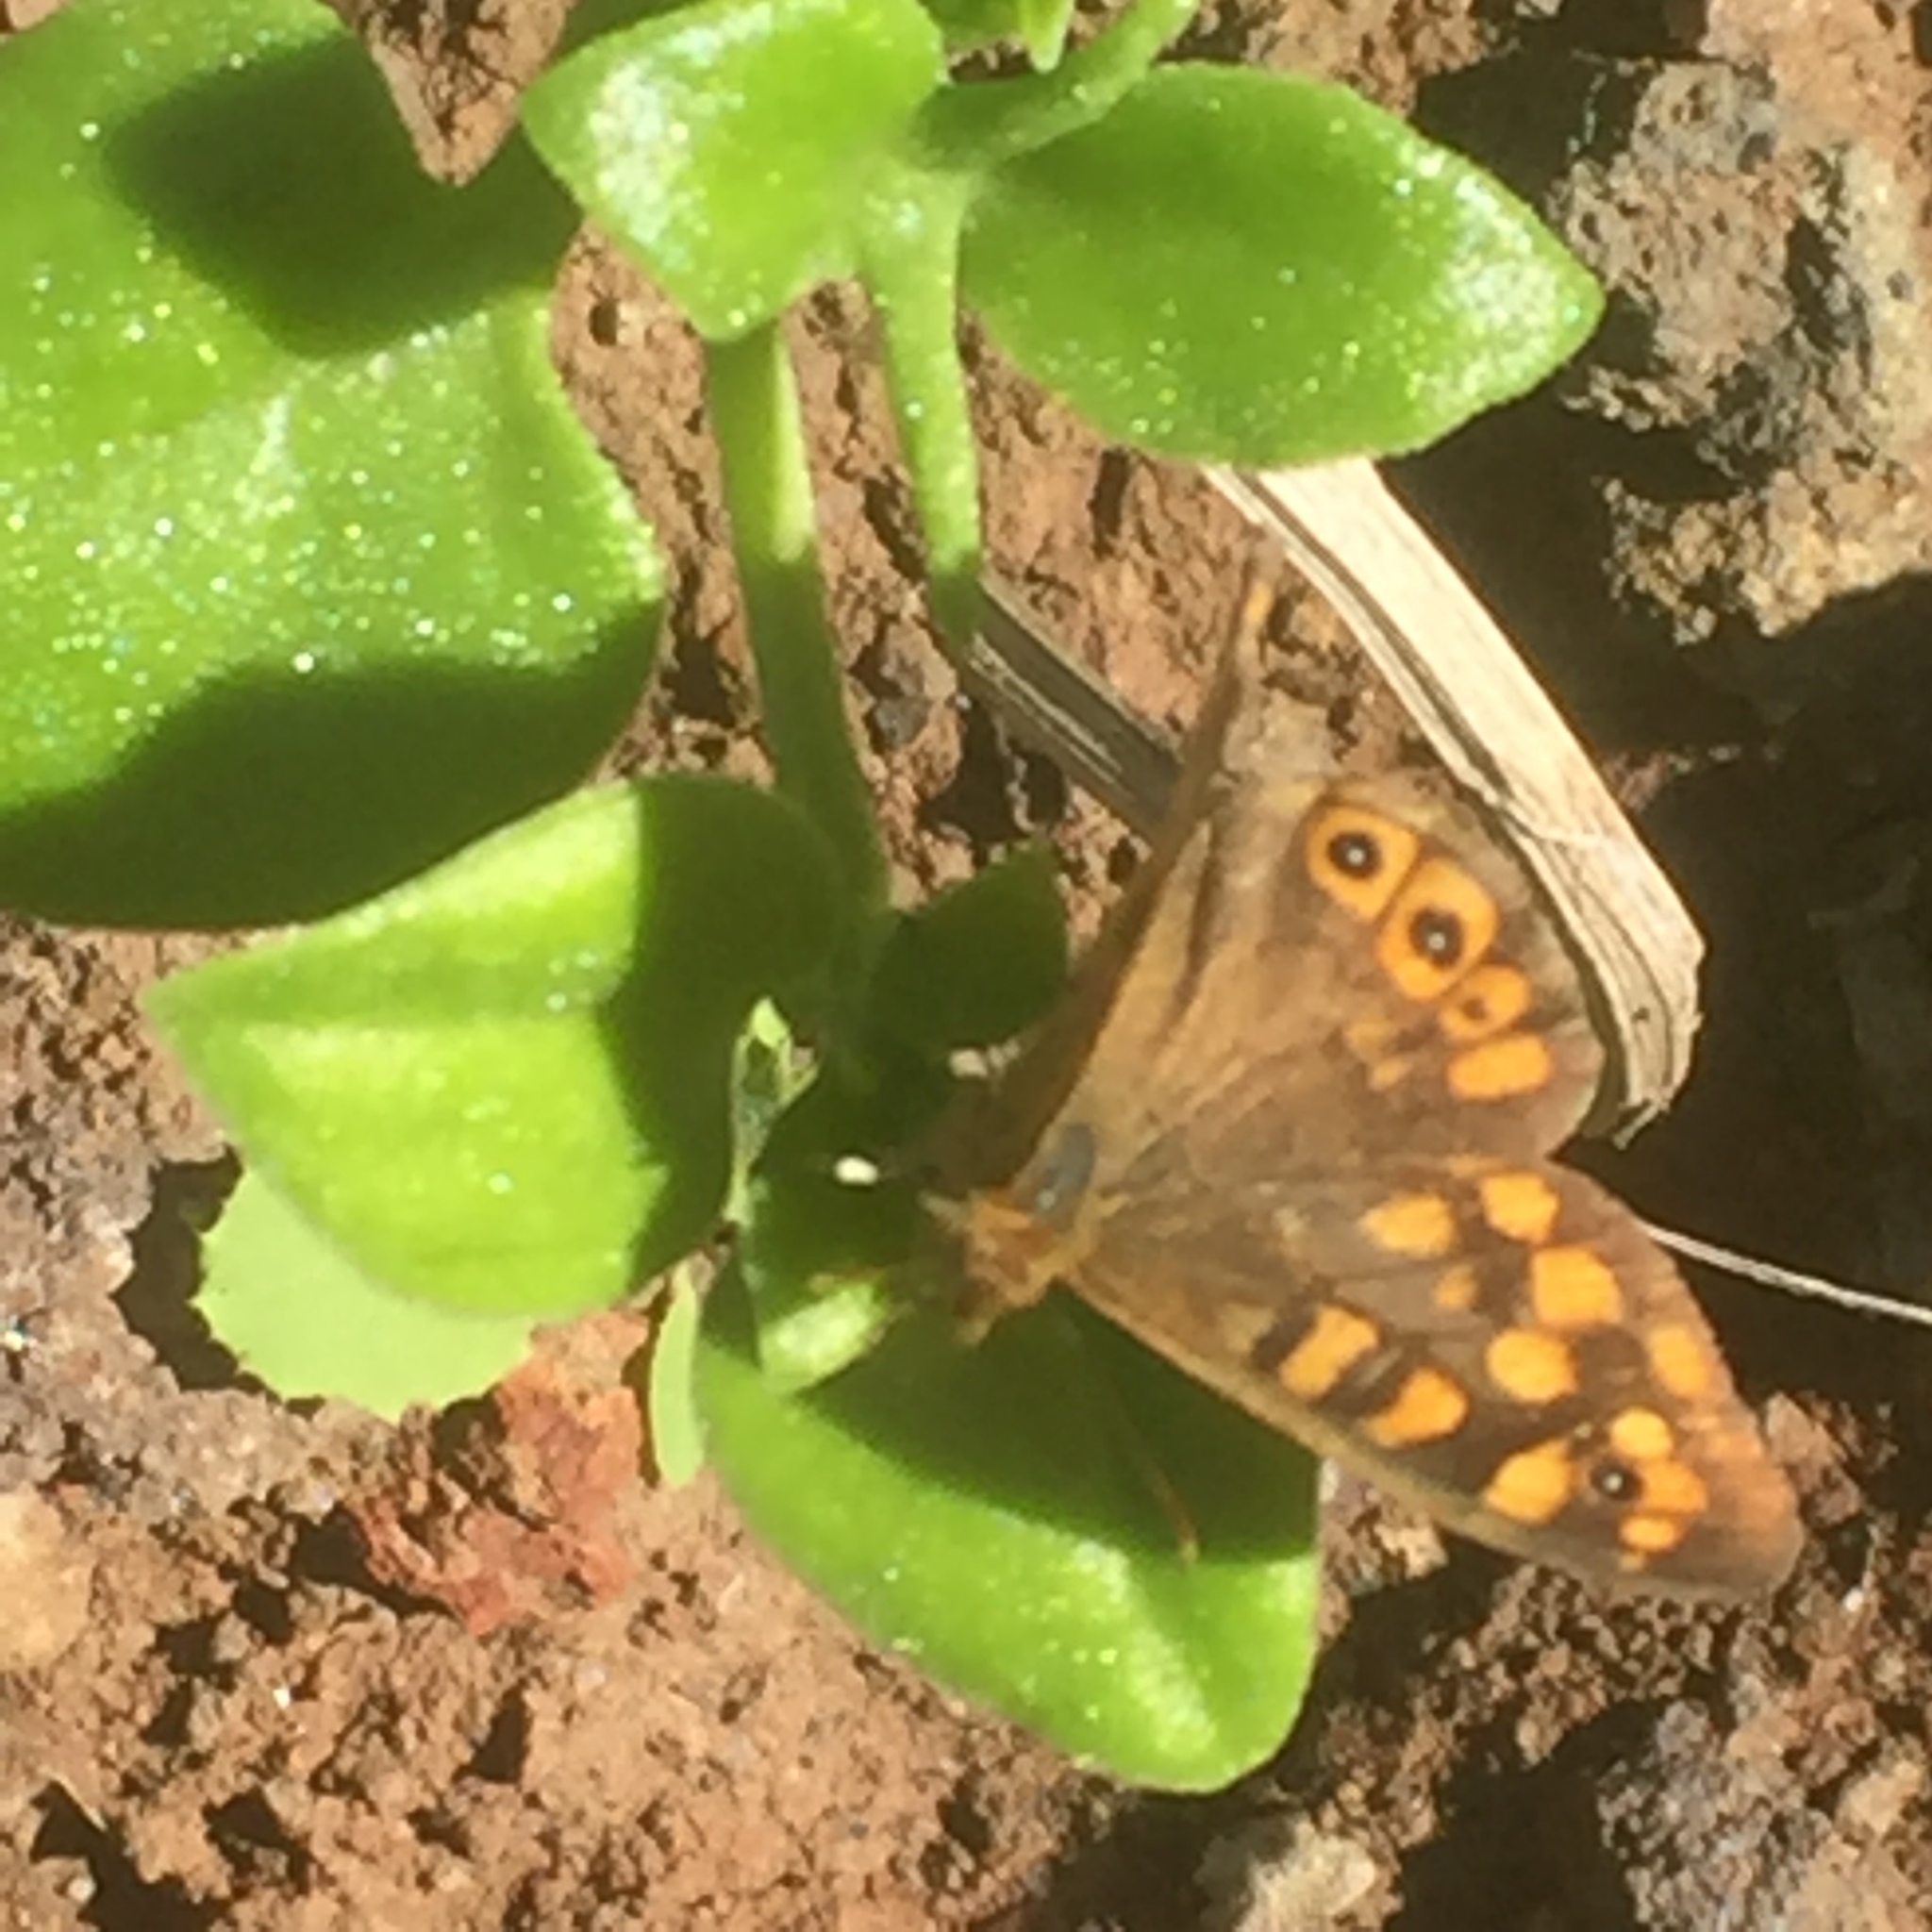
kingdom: Animalia
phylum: Arthropoda
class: Insecta
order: Lepidoptera
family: Nymphalidae
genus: Pararge
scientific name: Pararge aegeria
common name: Speckled wood
